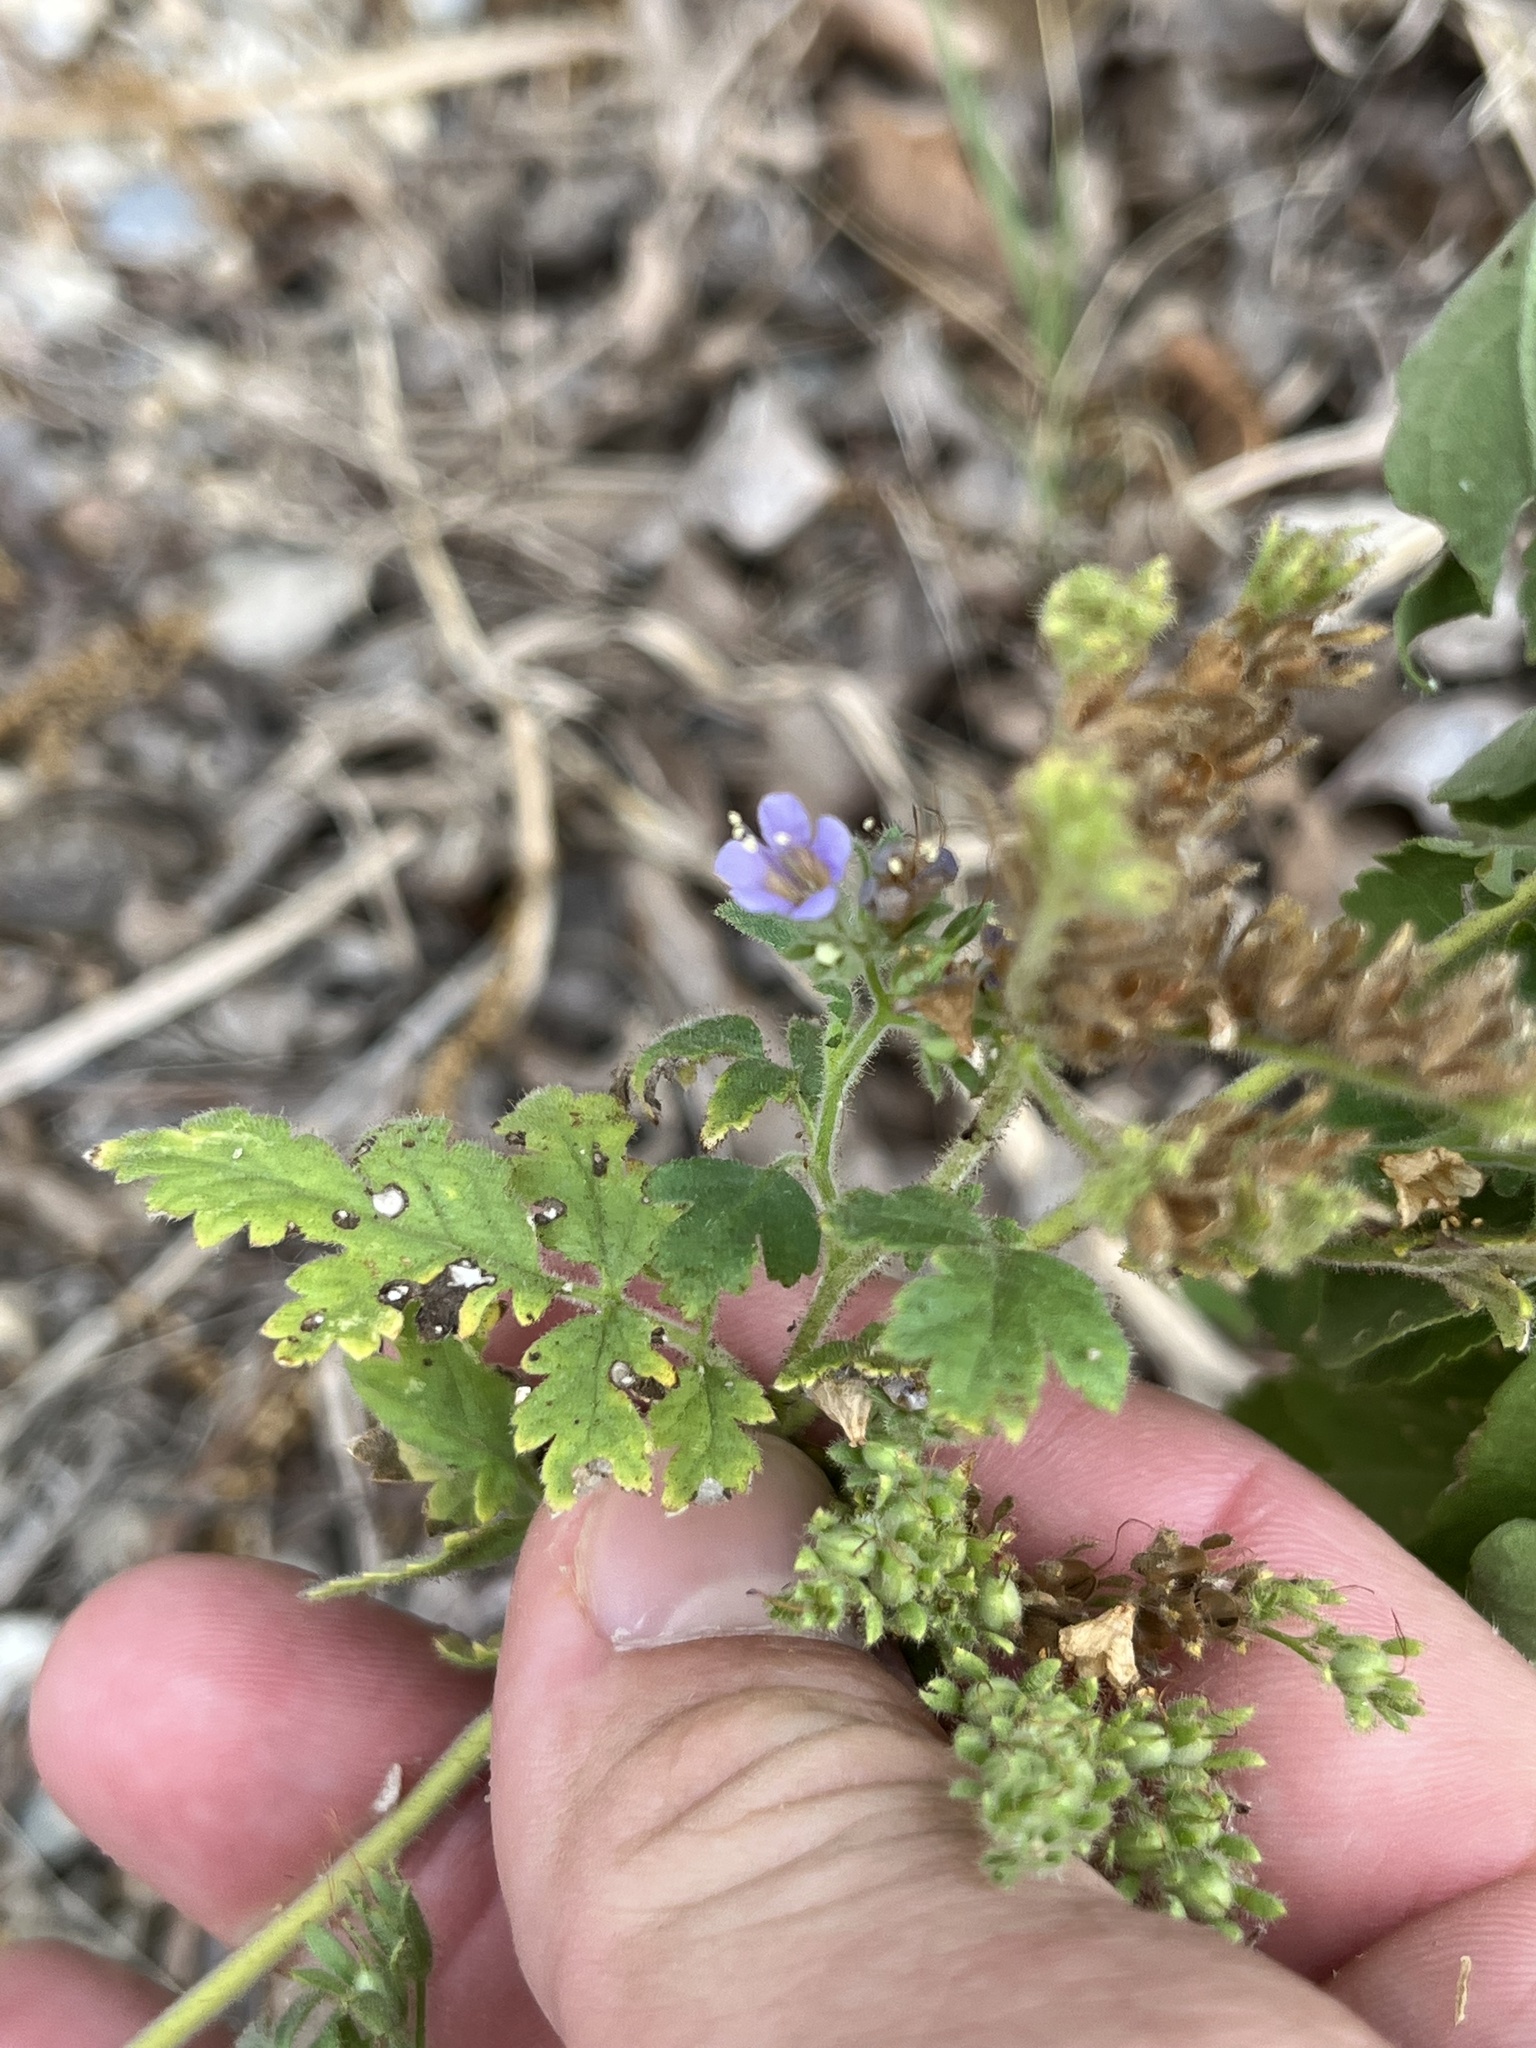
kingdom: Plantae
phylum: Tracheophyta
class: Magnoliopsida
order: Boraginales
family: Hydrophyllaceae
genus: Phacelia
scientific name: Phacelia congesta
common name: Blue curls
